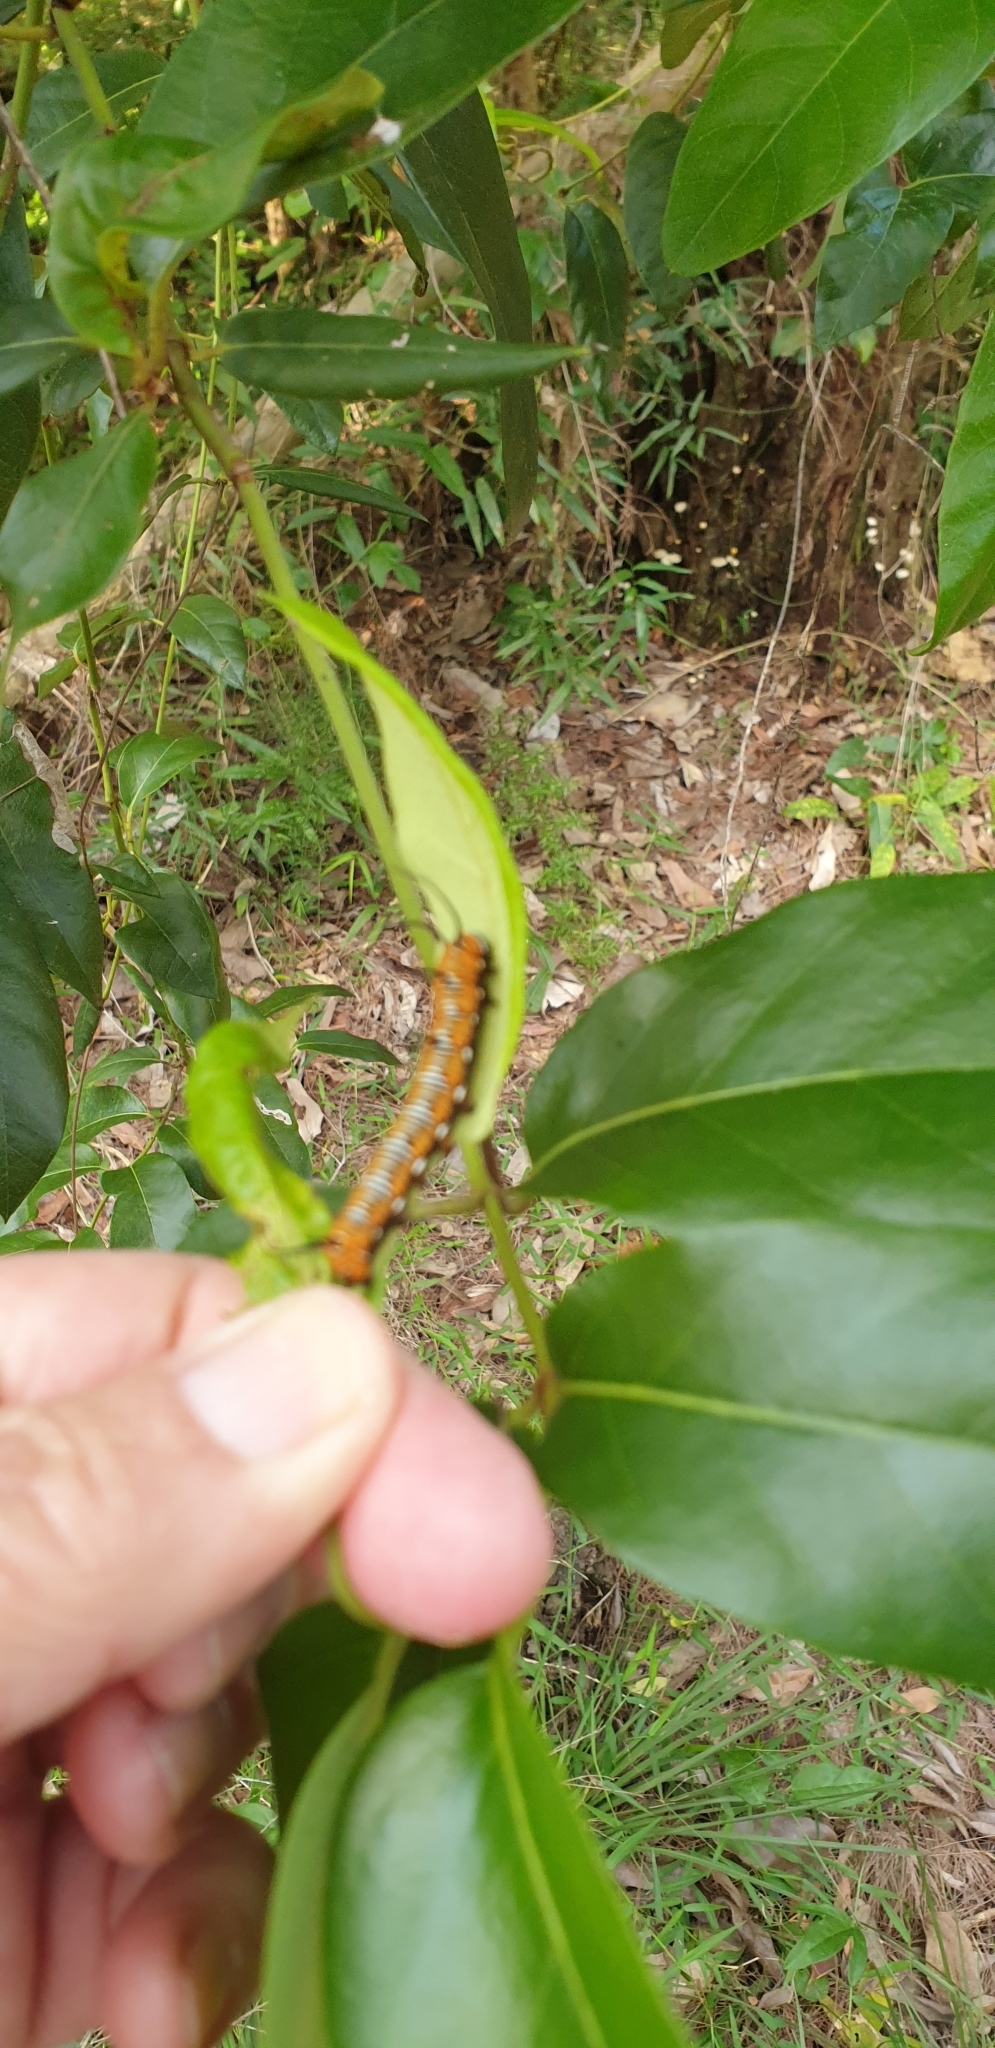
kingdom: Animalia
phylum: Arthropoda
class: Insecta
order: Lepidoptera
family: Nymphalidae
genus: Euploea
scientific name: Euploea core
